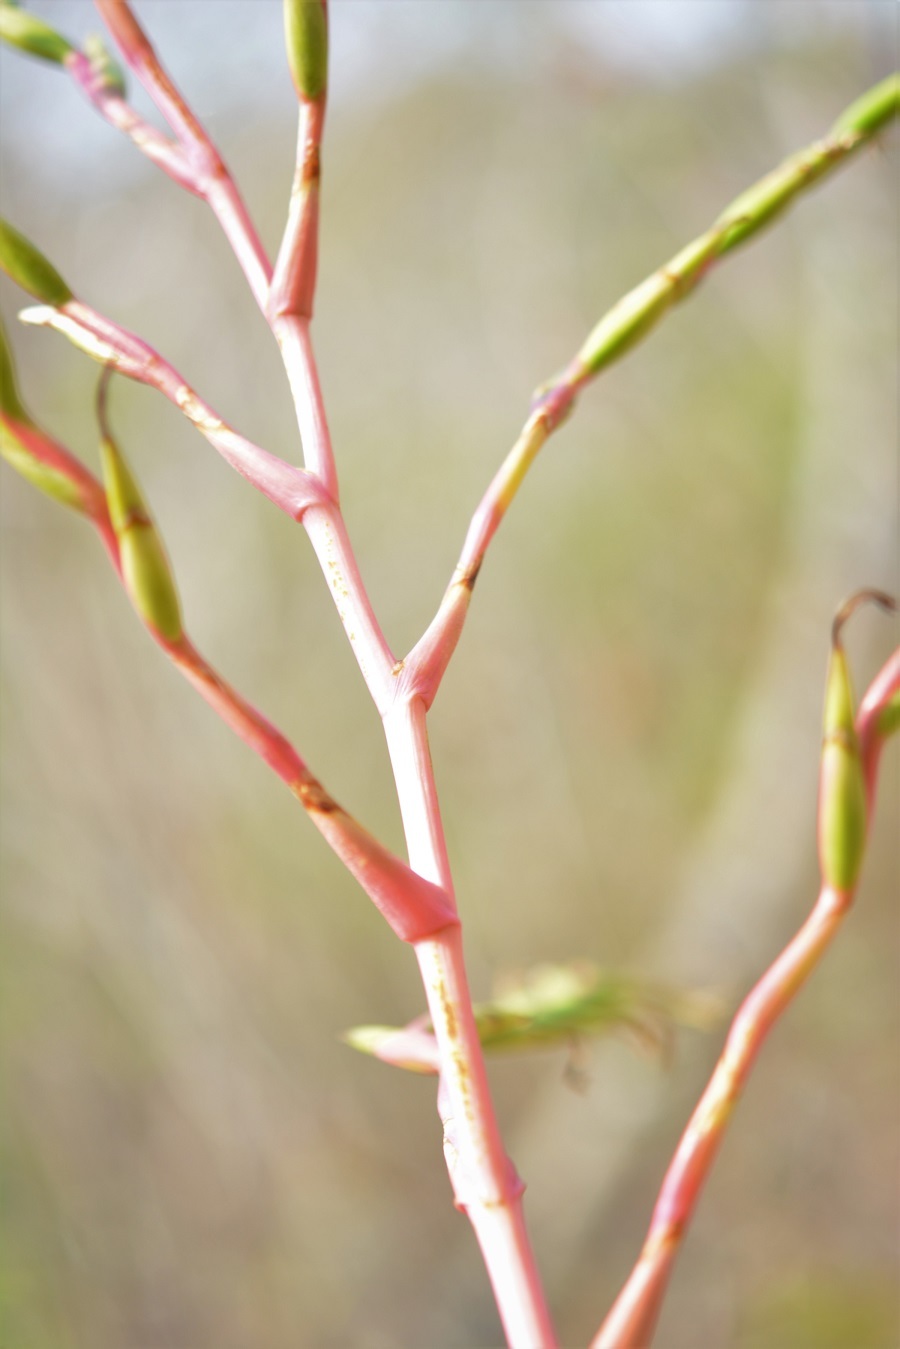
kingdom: Plantae
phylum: Tracheophyta
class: Liliopsida
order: Poales
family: Bromeliaceae
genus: Tillandsia
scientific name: Tillandsia elusiva
